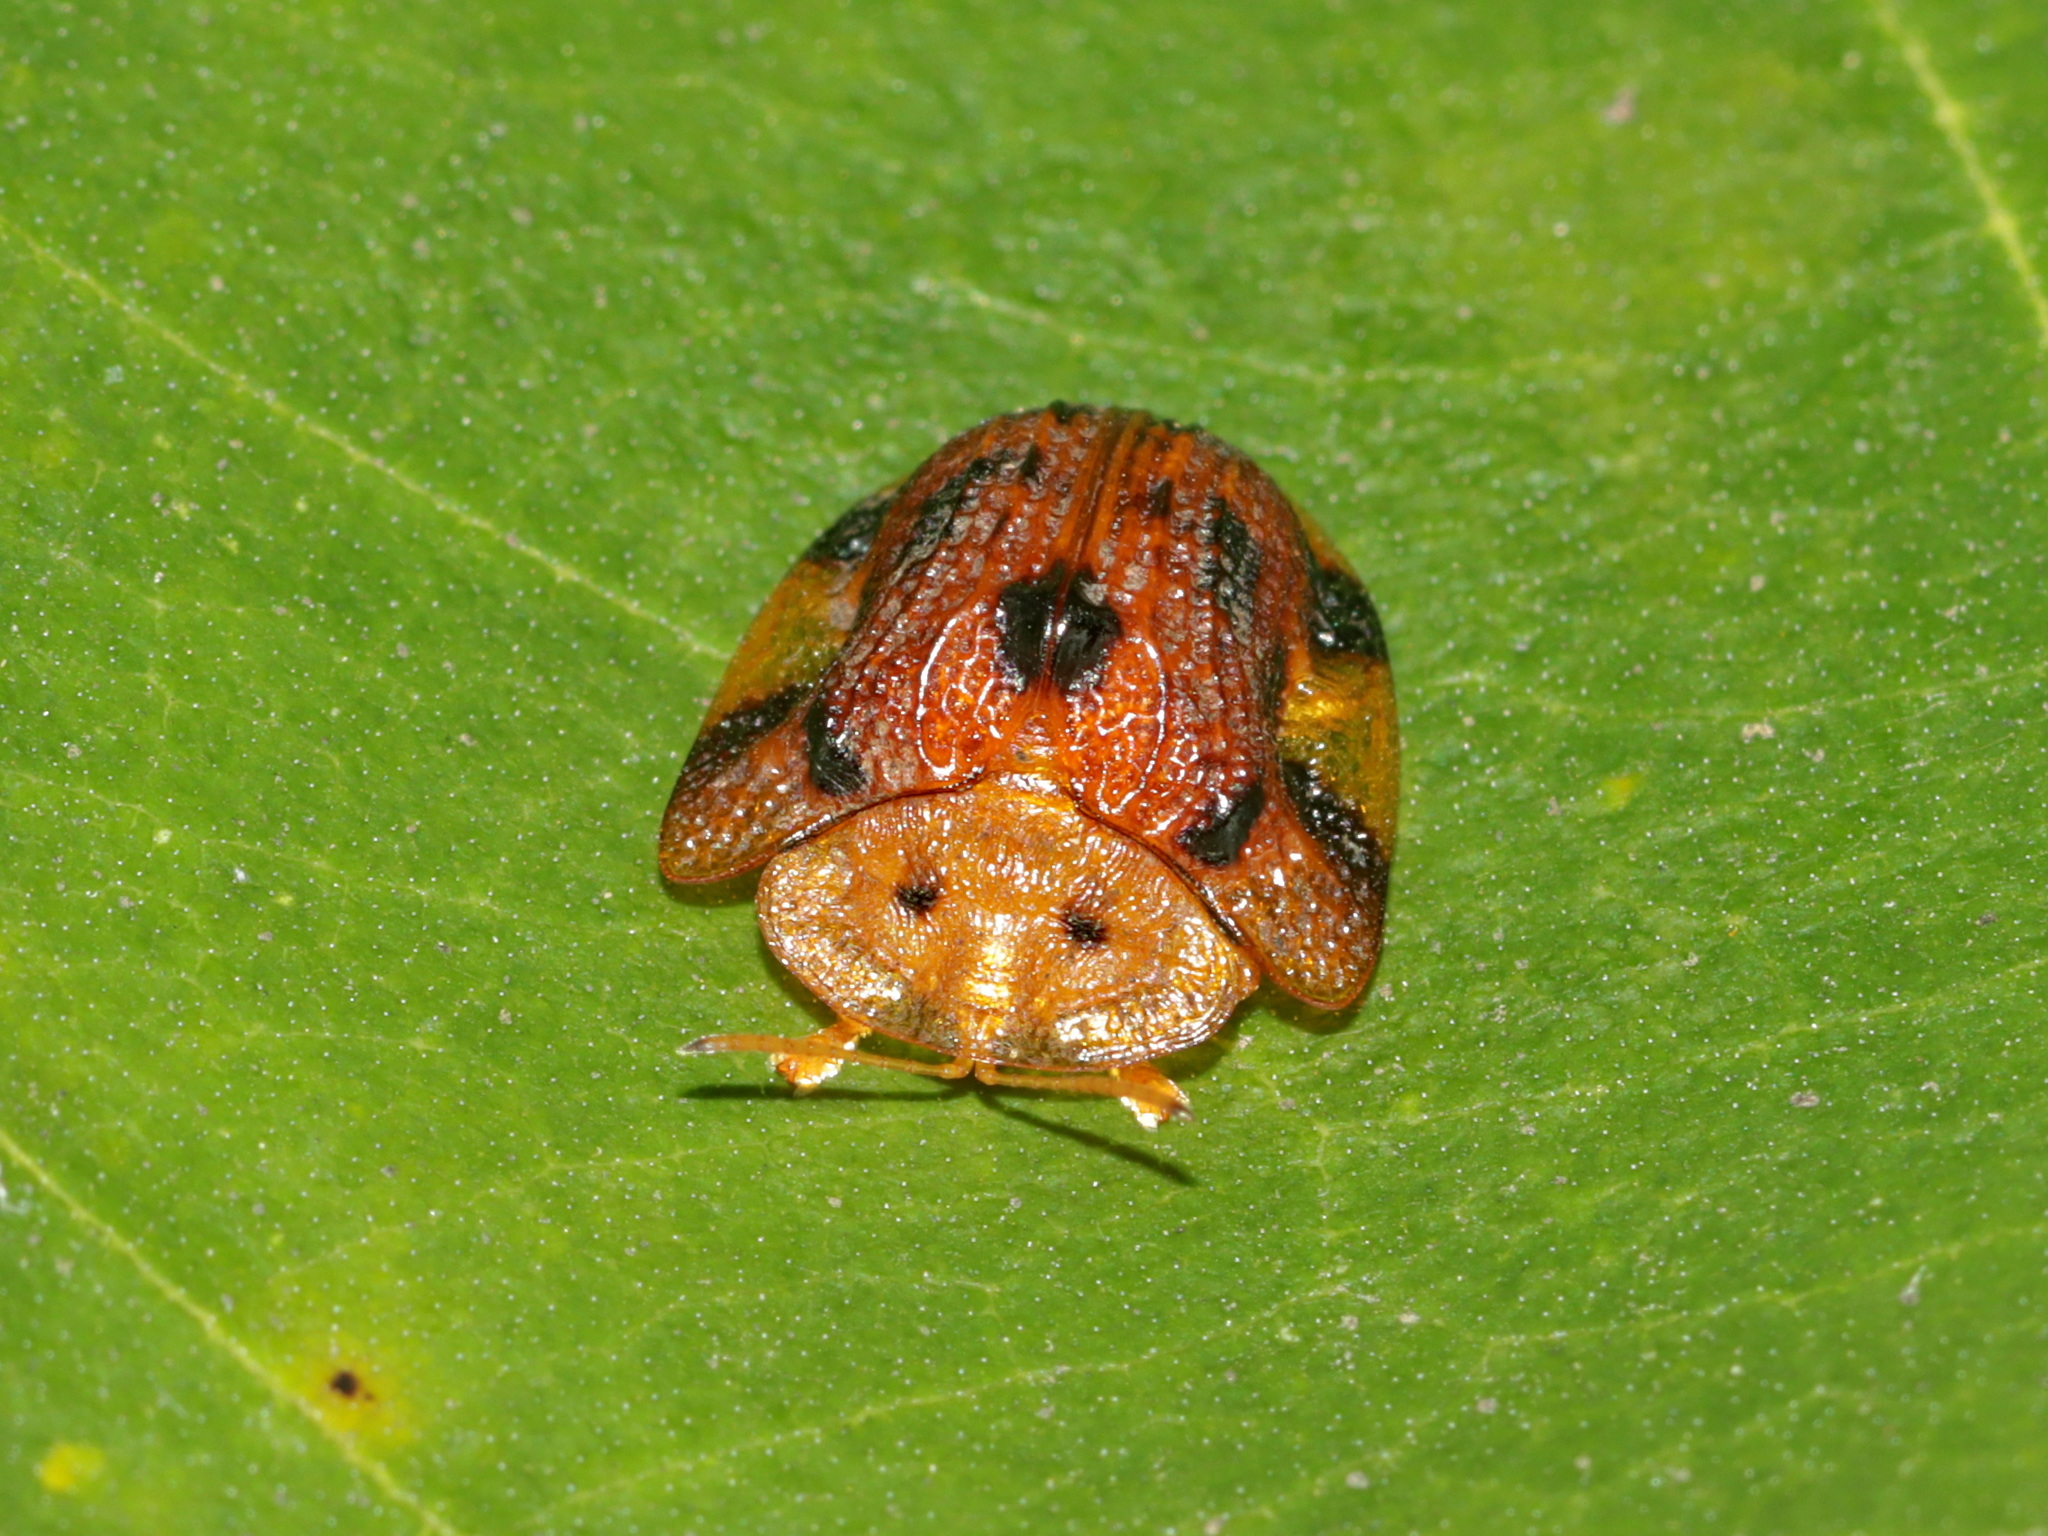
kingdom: Animalia
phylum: Arthropoda
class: Insecta
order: Coleoptera
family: Chrysomelidae
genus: Laccoptera
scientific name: Laccoptera nepalensis
